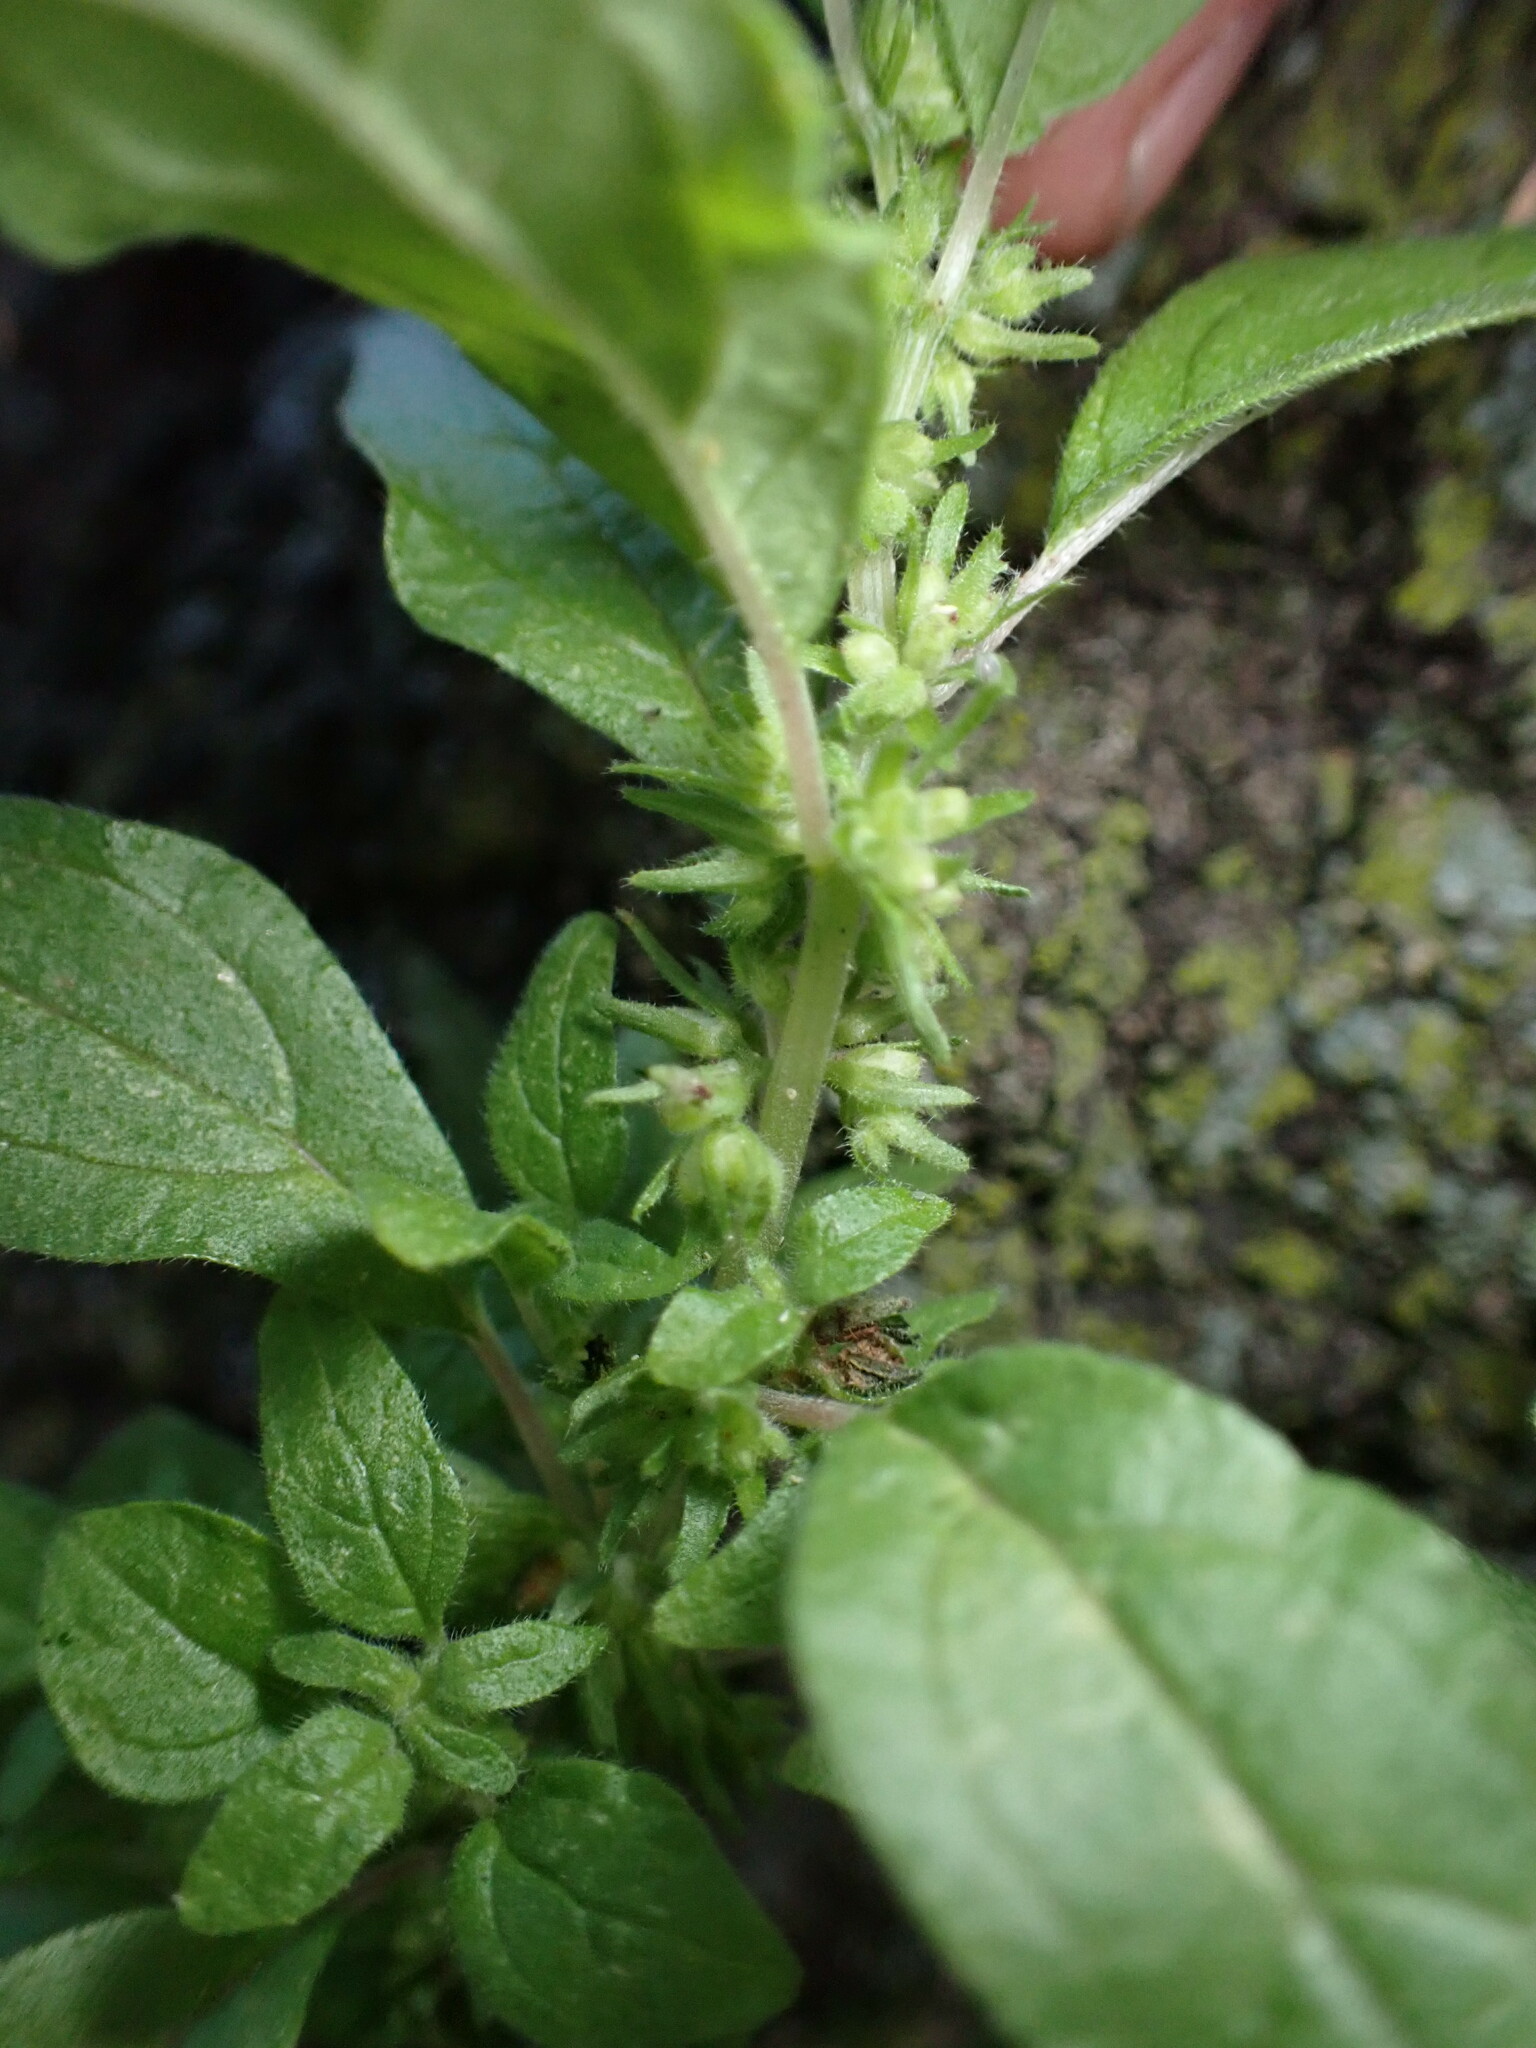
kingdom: Plantae
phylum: Tracheophyta
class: Magnoliopsida
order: Rosales
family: Urticaceae
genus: Parietaria
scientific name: Parietaria pensylvanica
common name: Pennsylvania pellitory
